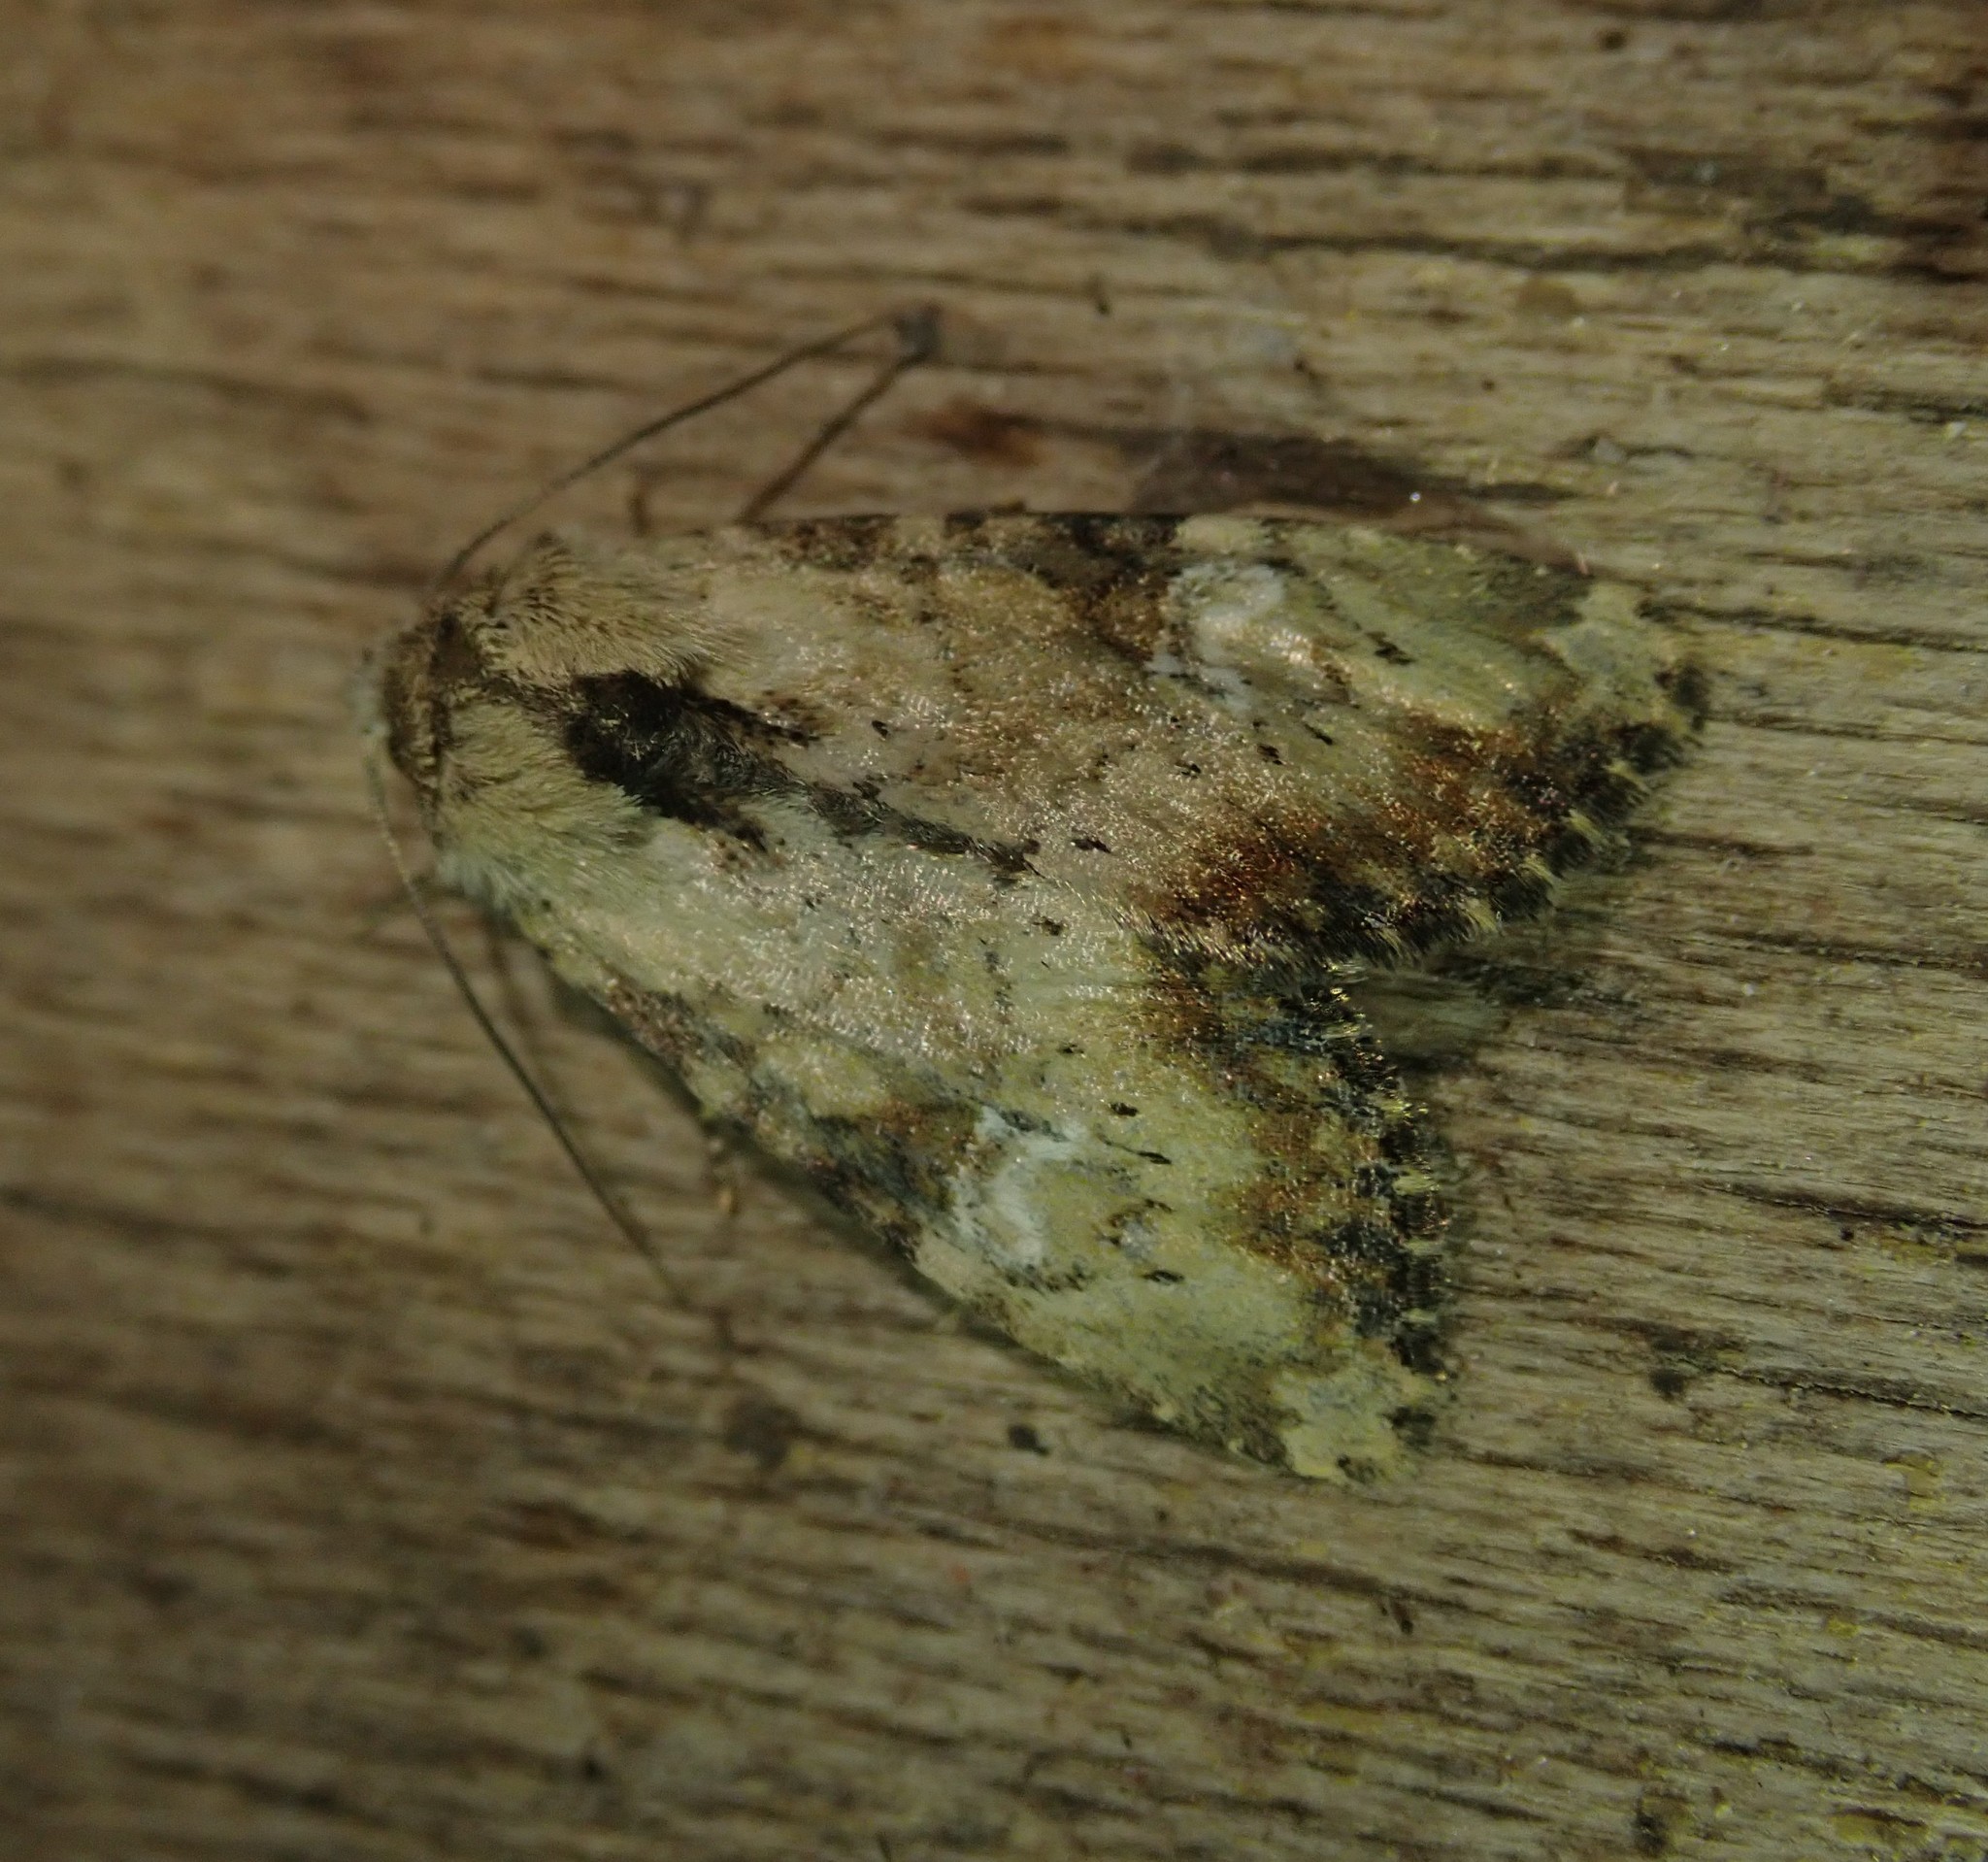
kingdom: Animalia
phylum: Arthropoda
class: Insecta
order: Lepidoptera
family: Noctuidae
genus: Loscopia
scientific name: Loscopia scolopacina
